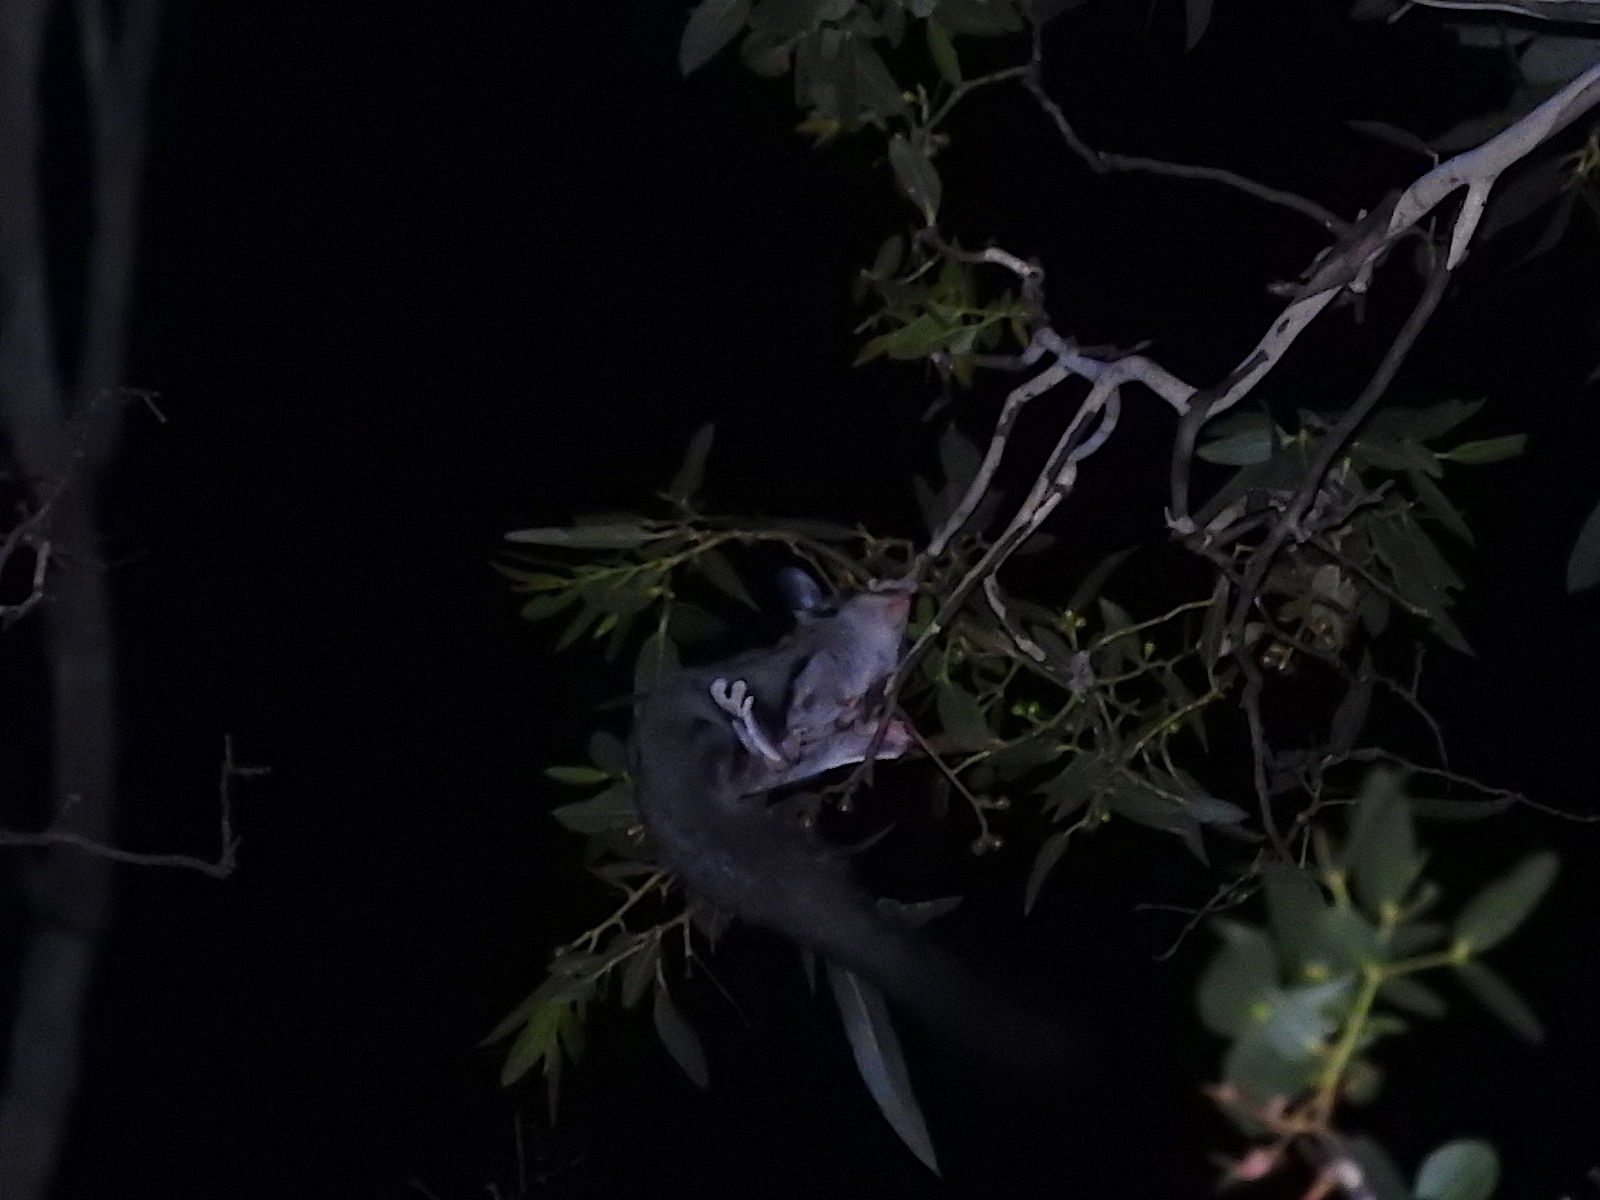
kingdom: Animalia
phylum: Chordata
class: Mammalia
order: Diprotodontia
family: Petauridae
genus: Petaurus
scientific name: Petaurus breviceps
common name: Sugar glider
